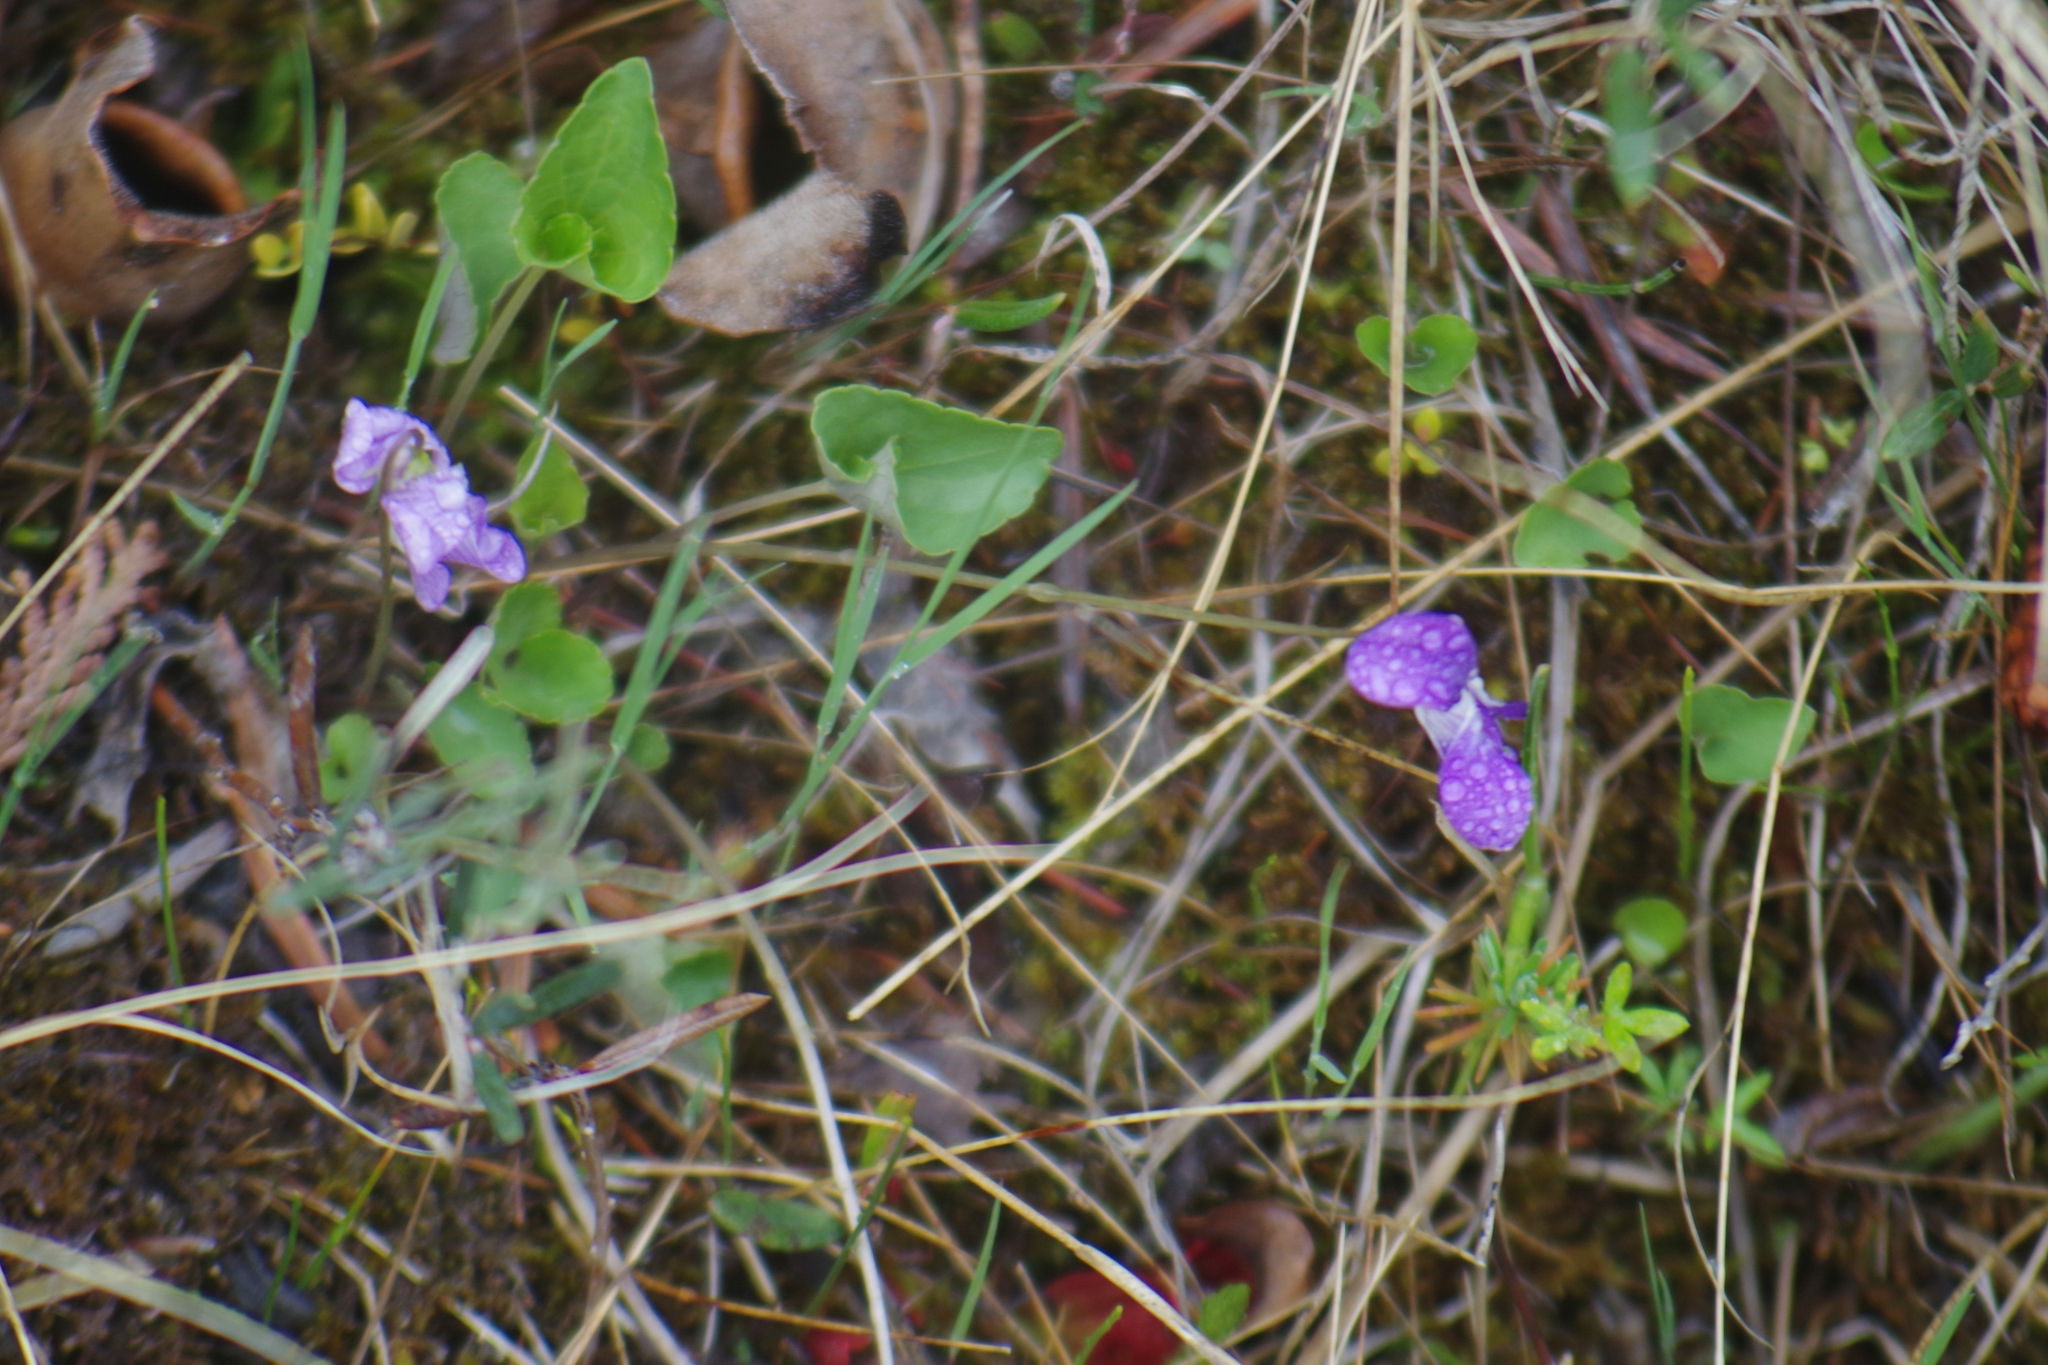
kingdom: Plantae
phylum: Tracheophyta
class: Magnoliopsida
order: Malpighiales
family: Violaceae
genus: Viola
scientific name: Viola nephrophylla
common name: Blue meadow violet
